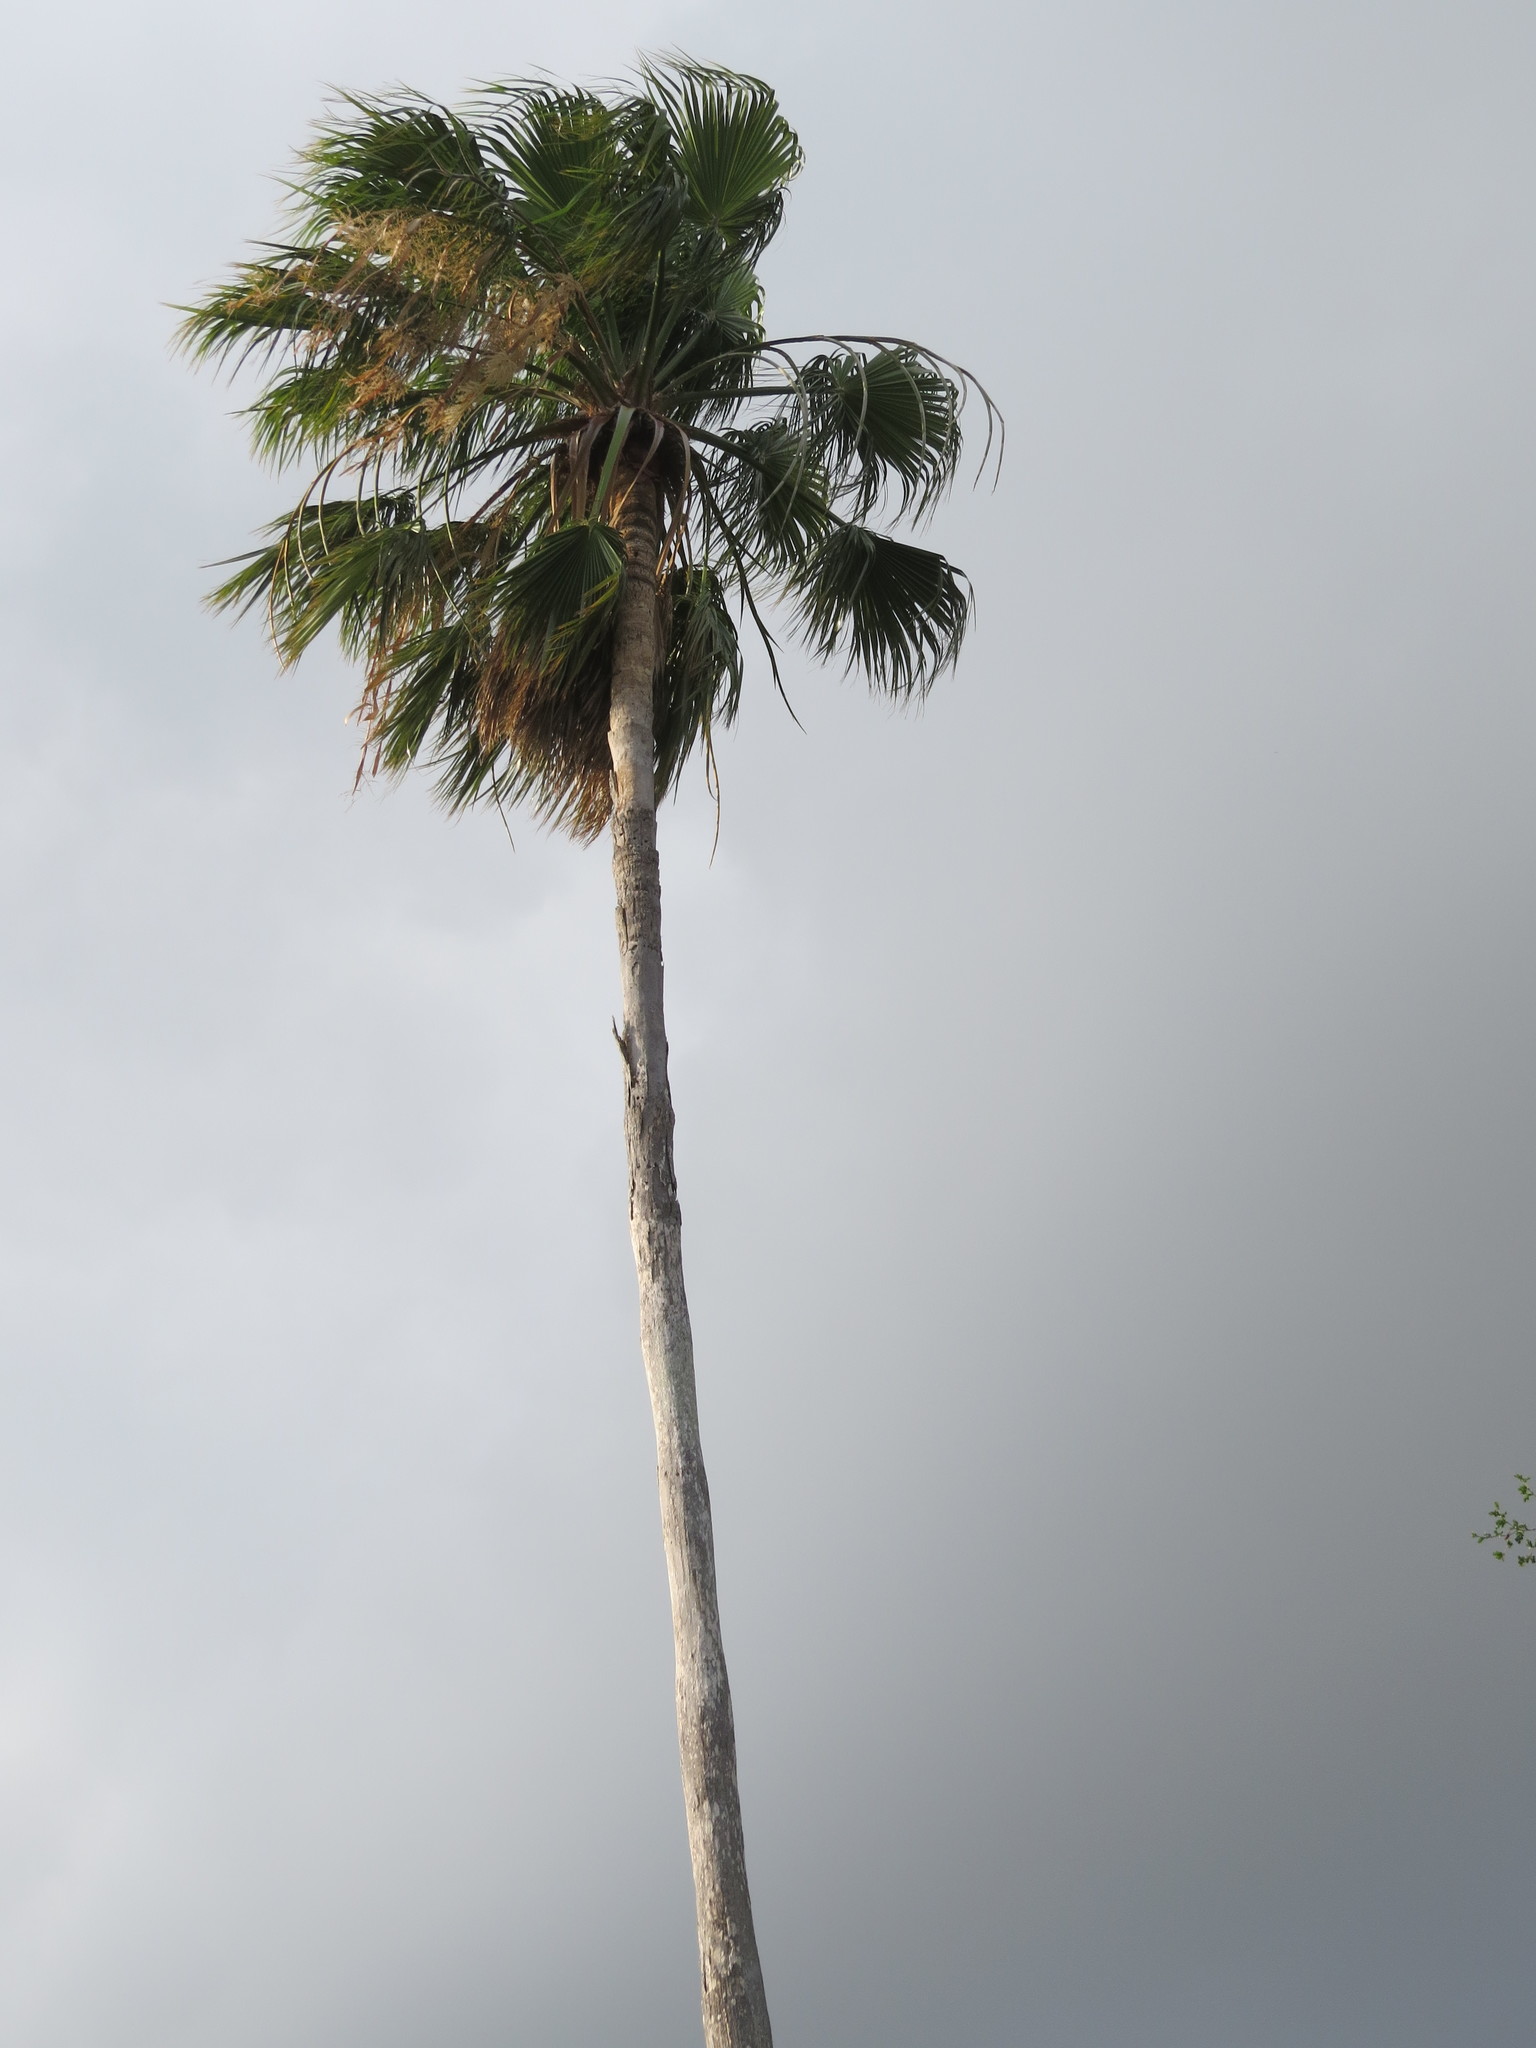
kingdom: Plantae
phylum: Tracheophyta
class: Liliopsida
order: Arecales
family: Arecaceae
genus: Washingtonia
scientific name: Washingtonia robusta
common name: Mexican fan palm
